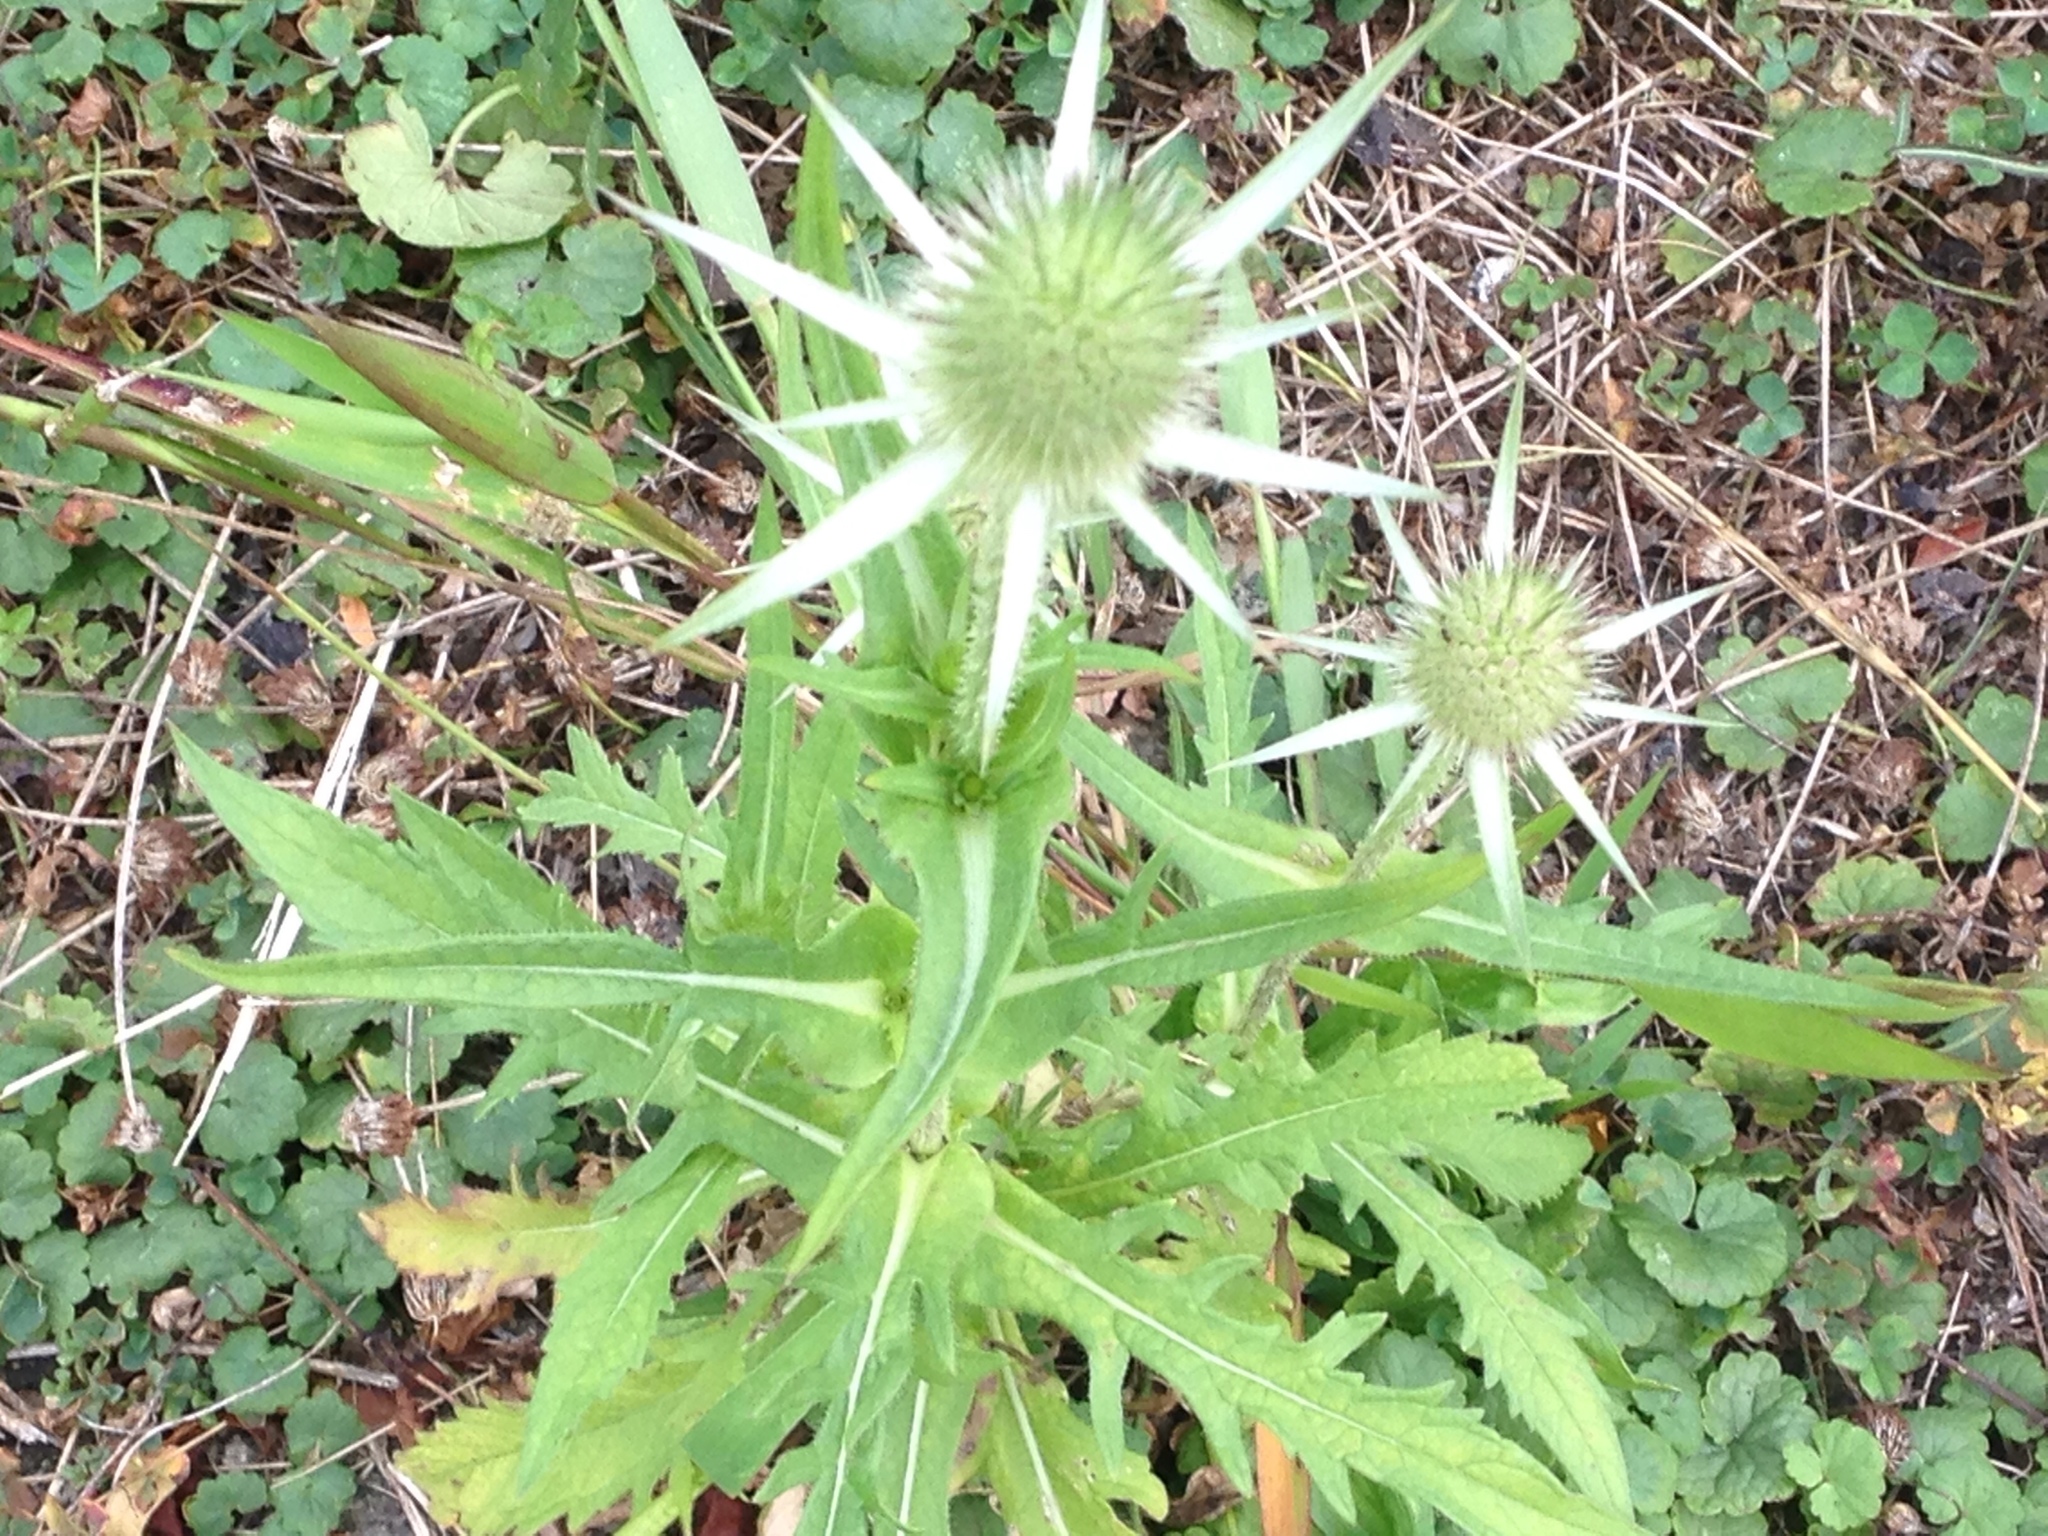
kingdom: Plantae
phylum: Tracheophyta
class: Magnoliopsida
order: Dipsacales
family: Caprifoliaceae
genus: Dipsacus
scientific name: Dipsacus laciniatus
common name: Cut-leaved teasel
